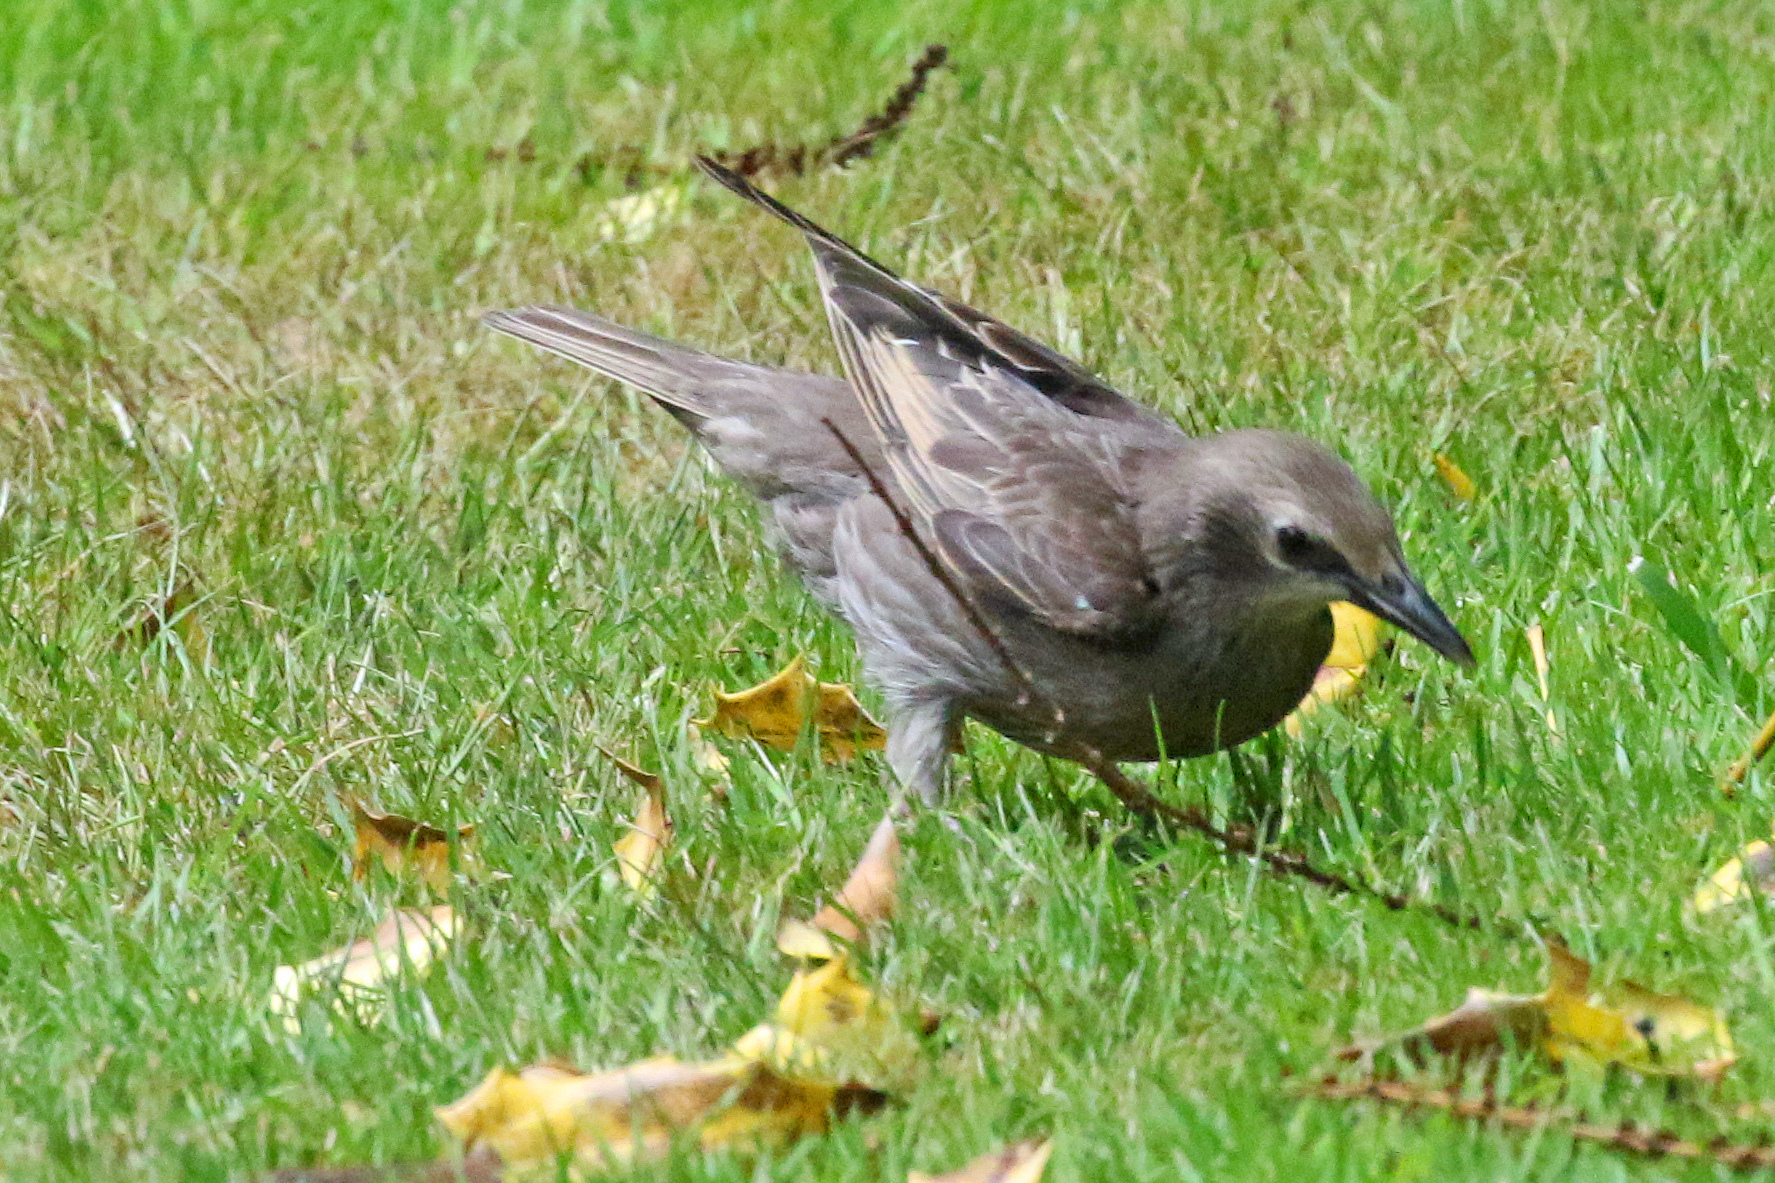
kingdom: Animalia
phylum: Chordata
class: Aves
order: Passeriformes
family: Sturnidae
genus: Sturnus
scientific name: Sturnus vulgaris
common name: Common starling
